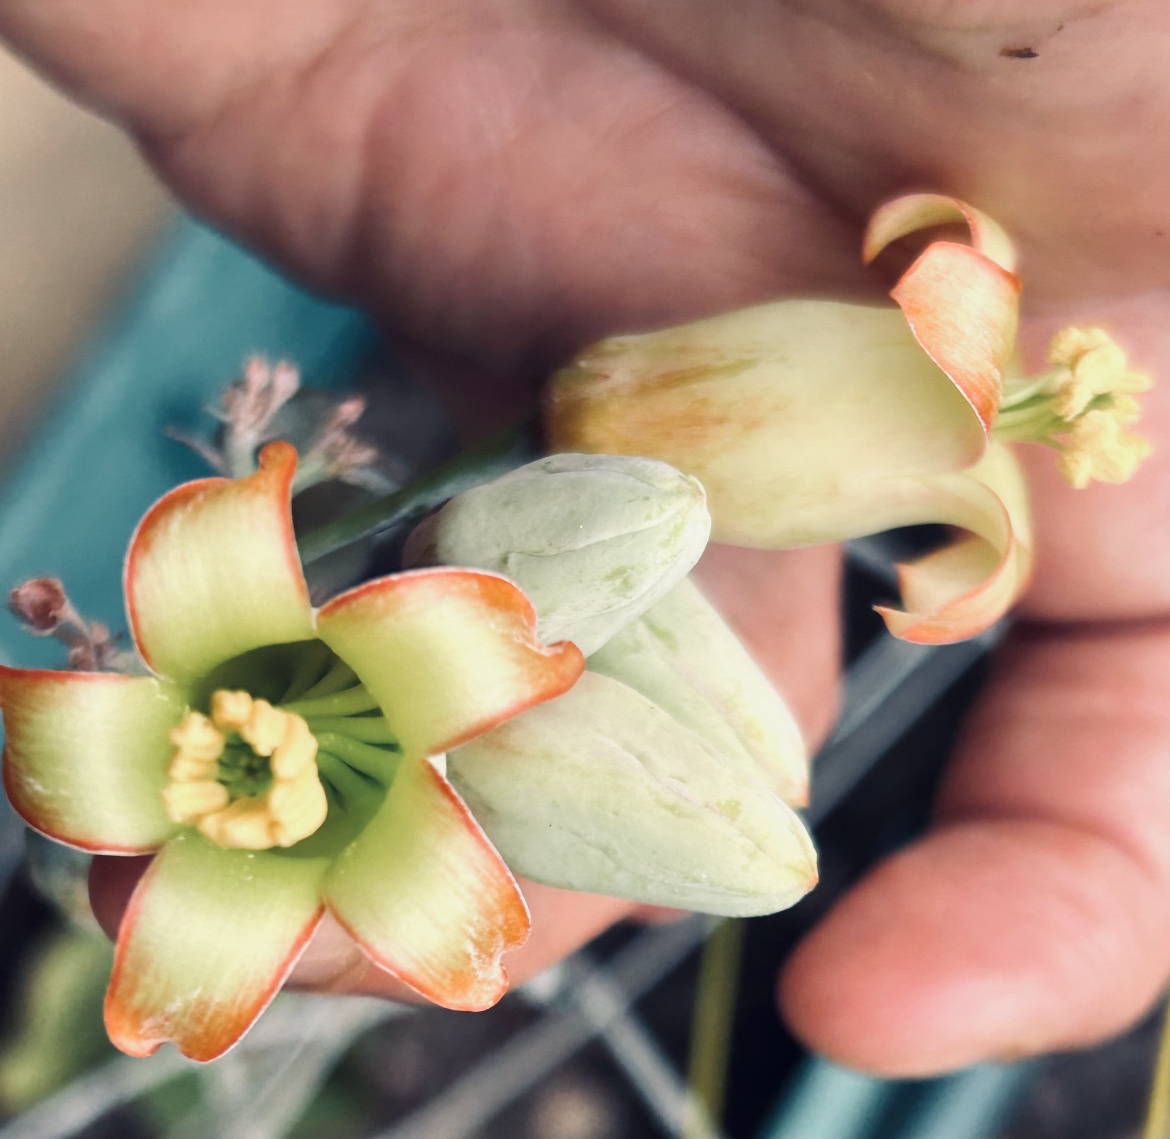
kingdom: Plantae
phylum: Tracheophyta
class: Magnoliopsida
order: Saxifragales
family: Crassulaceae
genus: Cotyledon
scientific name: Cotyledon orbiculata
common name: Pig's ear
